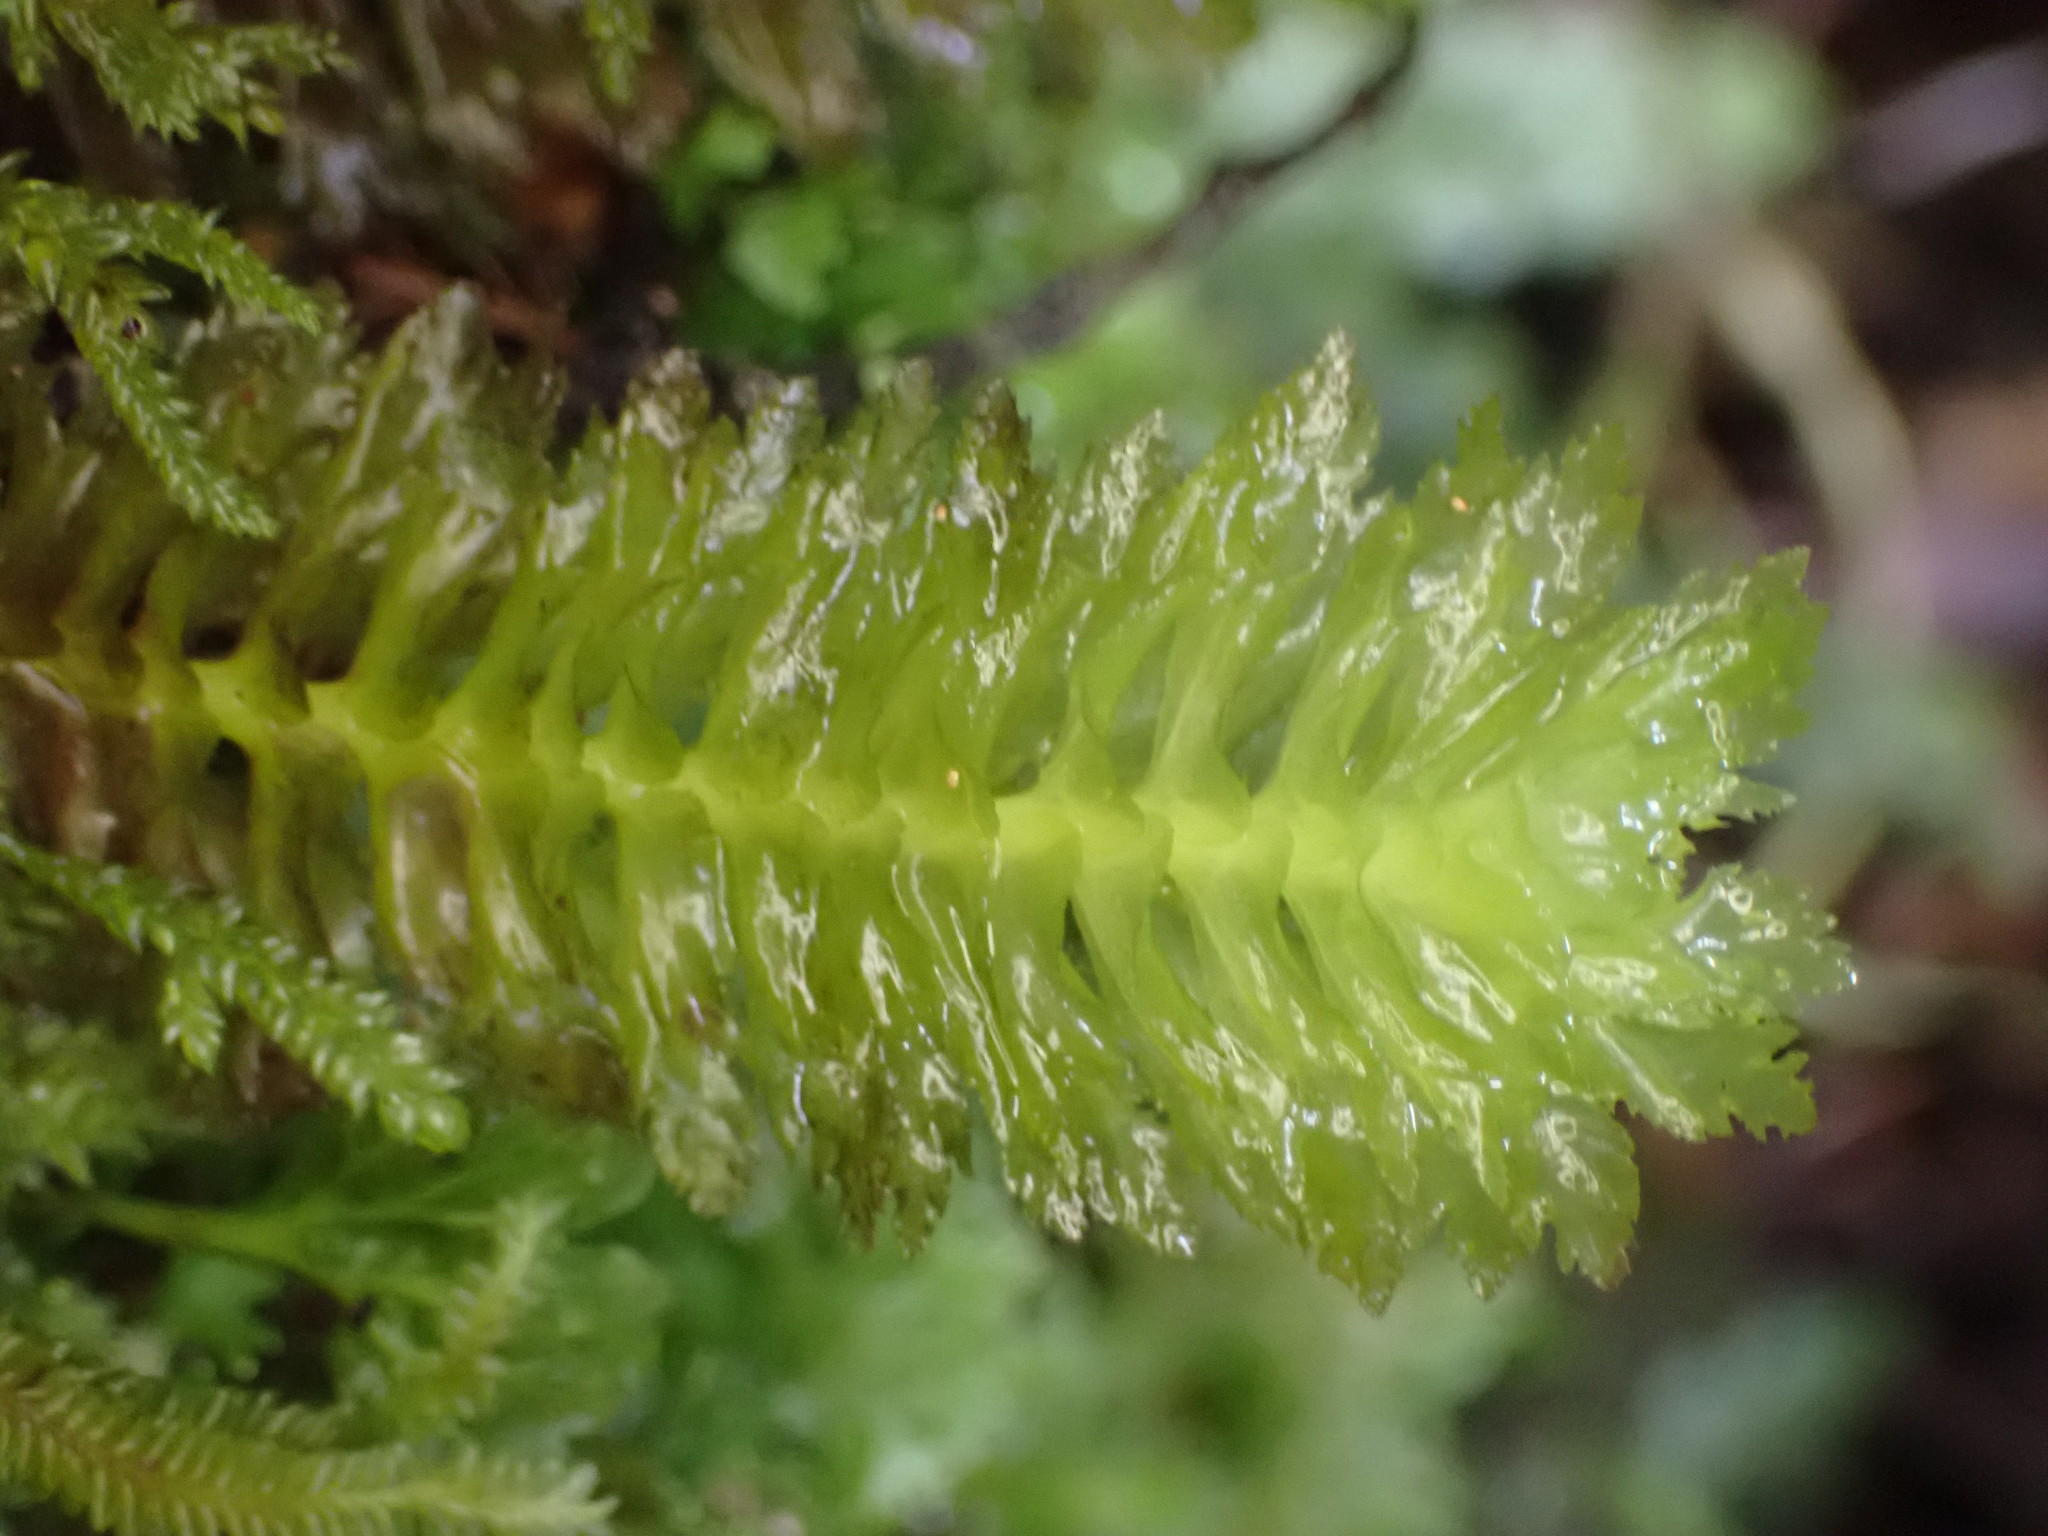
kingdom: Plantae
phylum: Marchantiophyta
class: Jungermanniopsida
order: Jungermanniales
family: Schistochilaceae
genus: Schistochila
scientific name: Schistochila appendiculata
